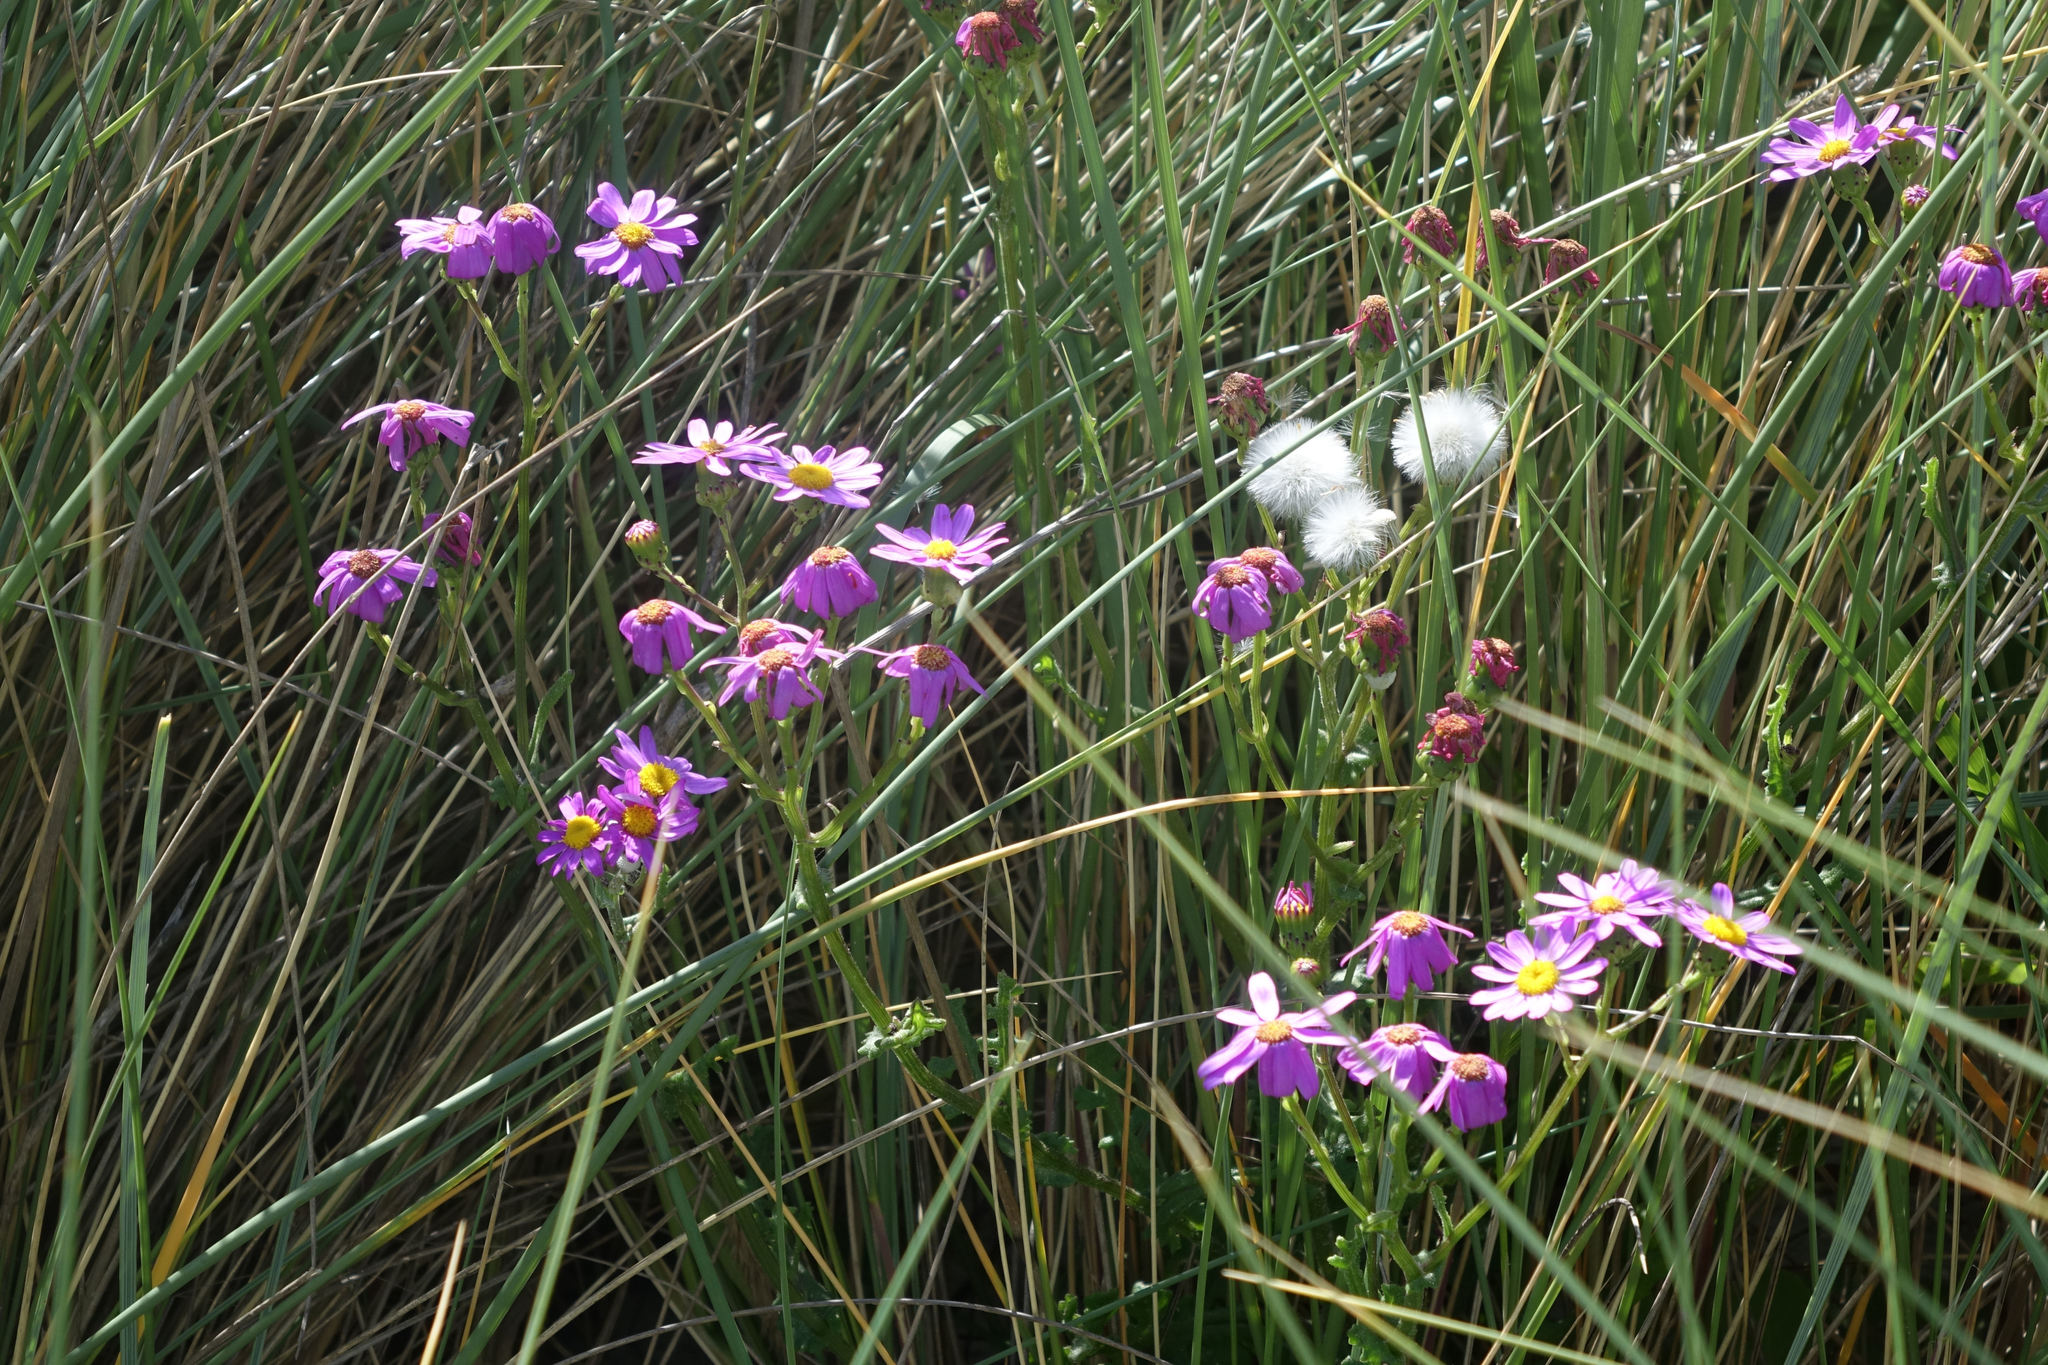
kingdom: Plantae
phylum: Tracheophyta
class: Magnoliopsida
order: Asterales
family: Asteraceae
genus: Senecio
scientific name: Senecio elegans
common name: Purple groundsel
